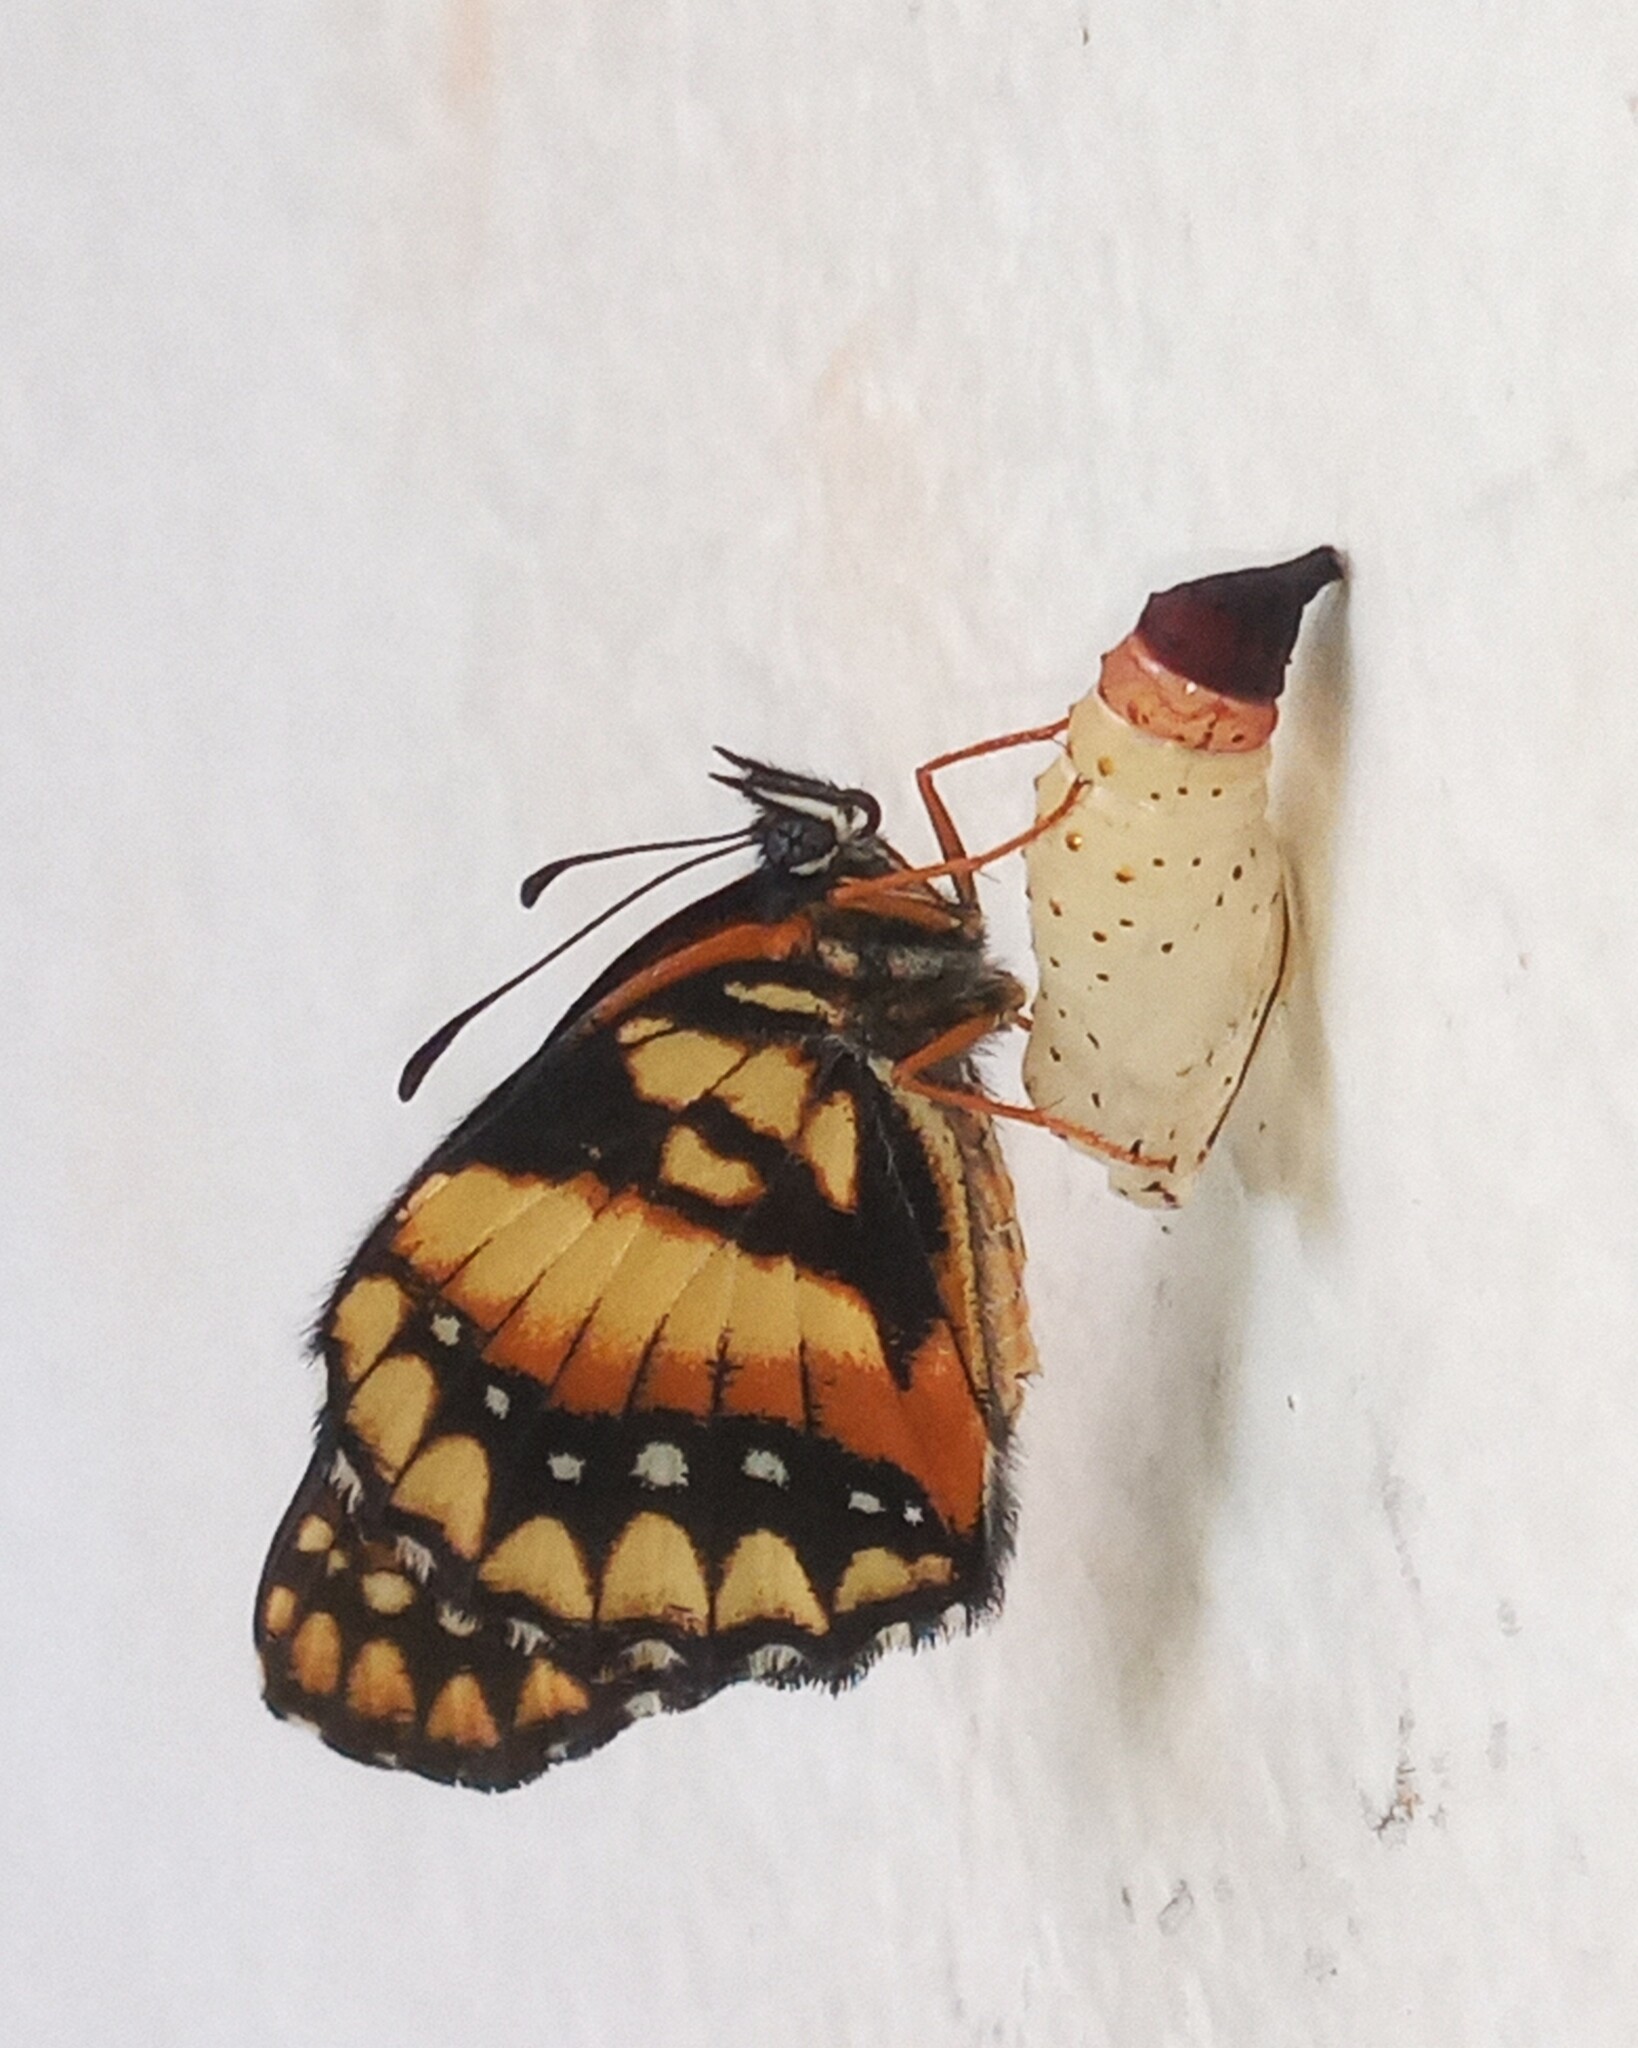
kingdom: Animalia
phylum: Arthropoda
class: Insecta
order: Lepidoptera
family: Nymphalidae
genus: Chlosyne
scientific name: Chlosyne lacinia
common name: Bordered patch
